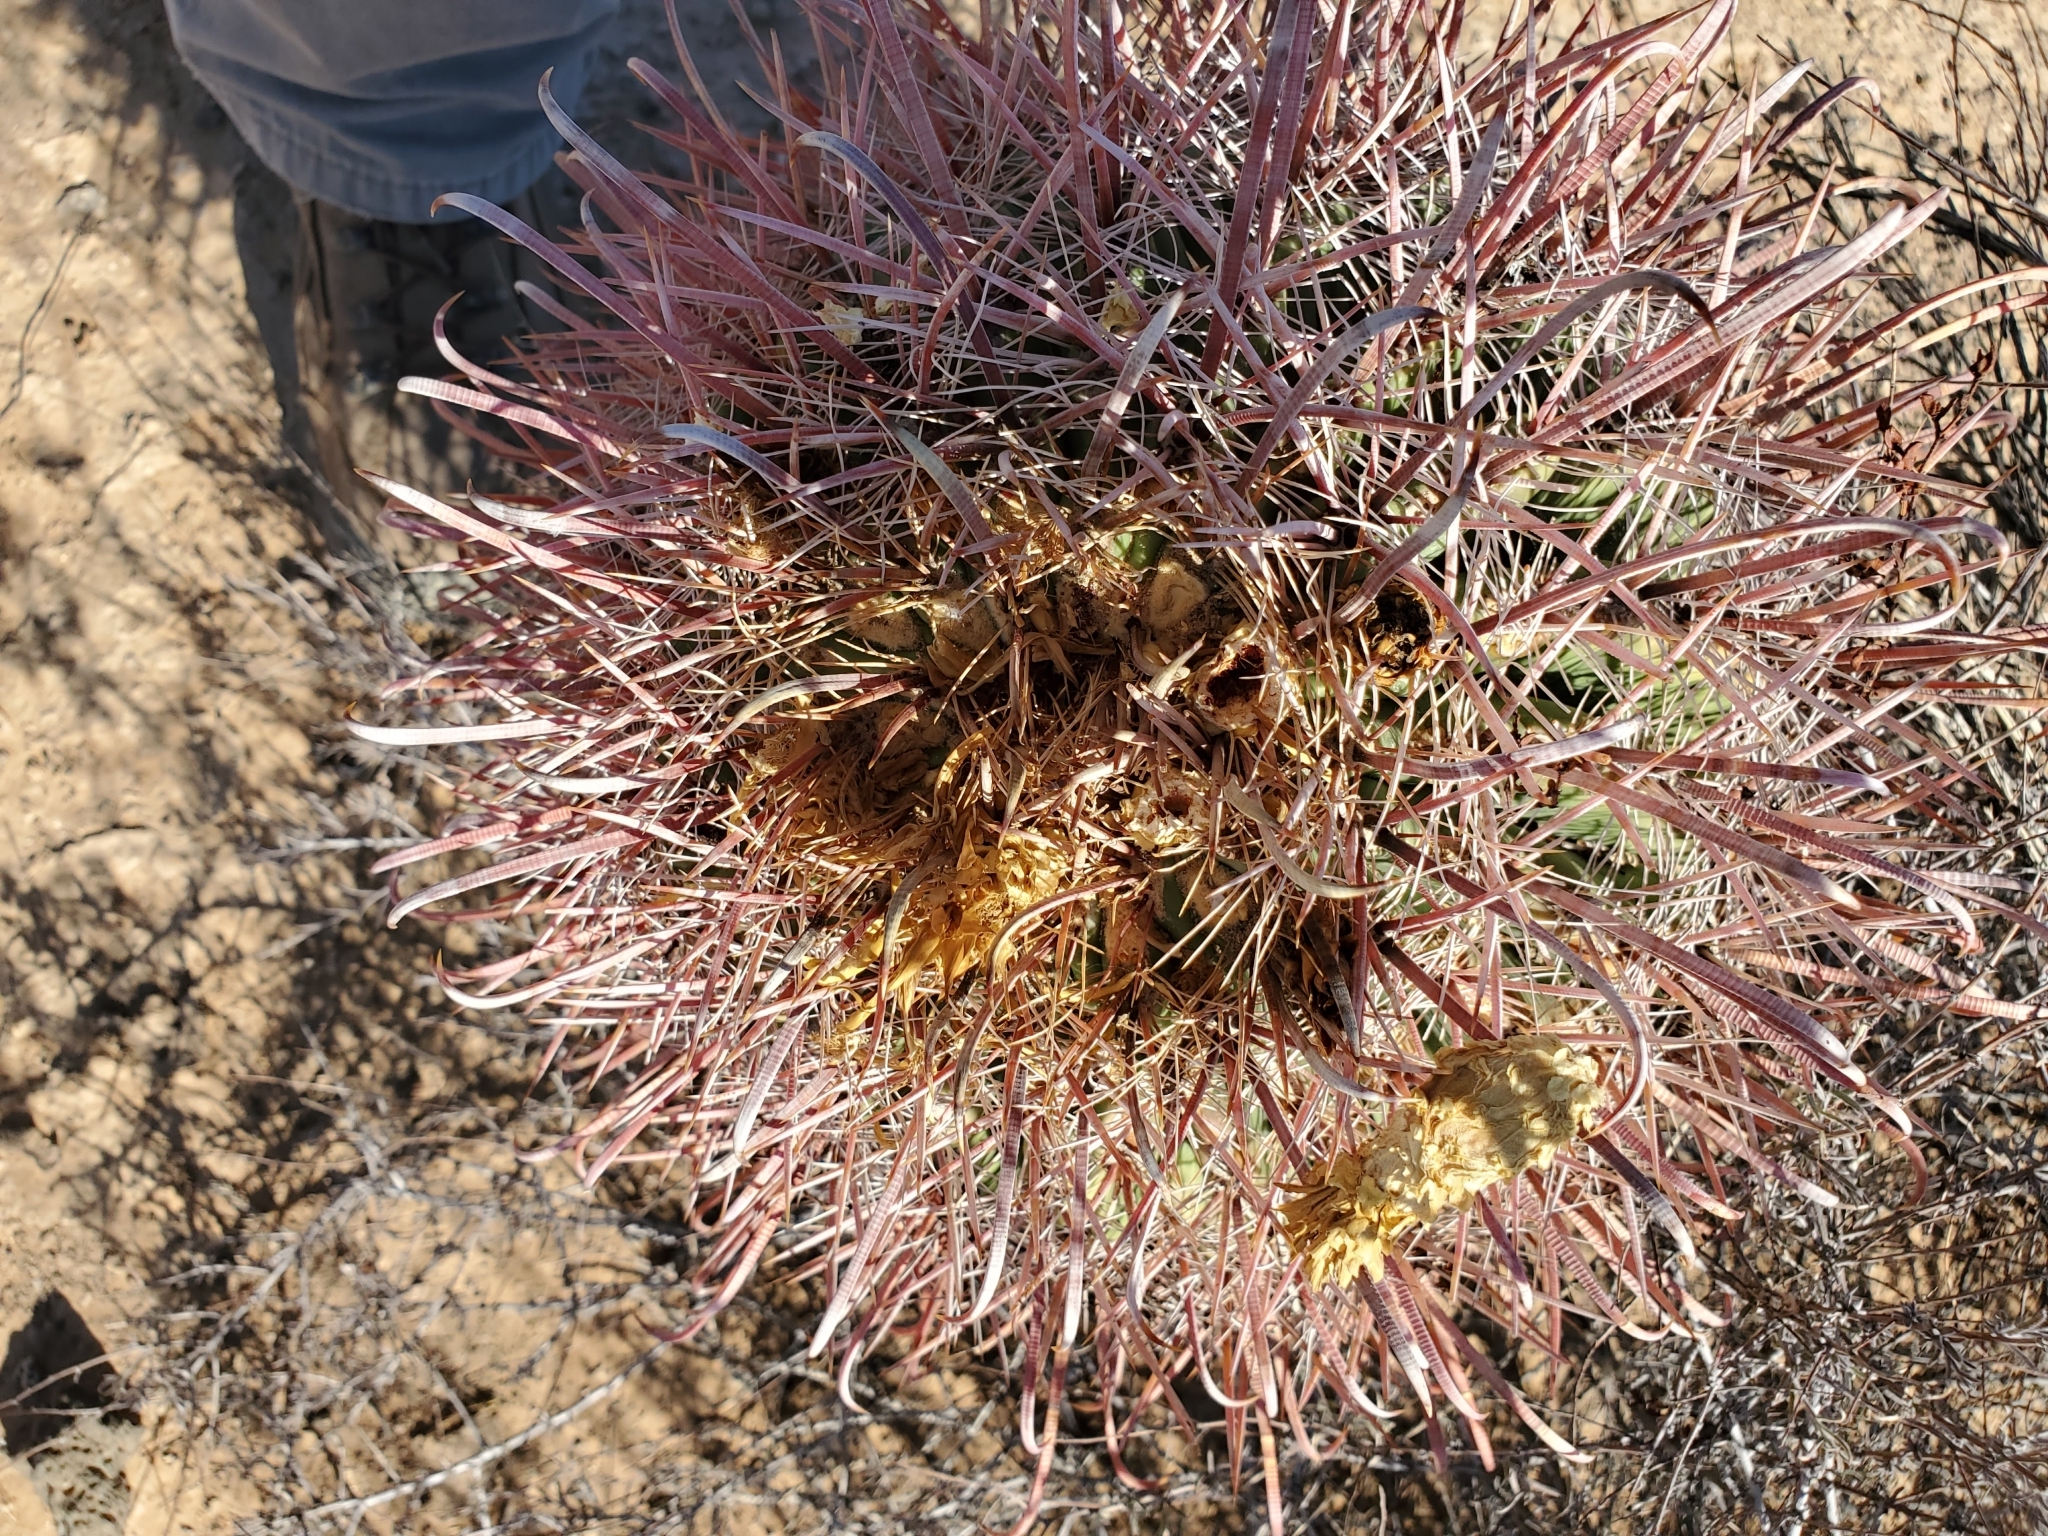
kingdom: Plantae
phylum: Tracheophyta
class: Magnoliopsida
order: Caryophyllales
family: Cactaceae
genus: Ferocactus
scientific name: Ferocactus cylindraceus
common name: California barrel cactus
